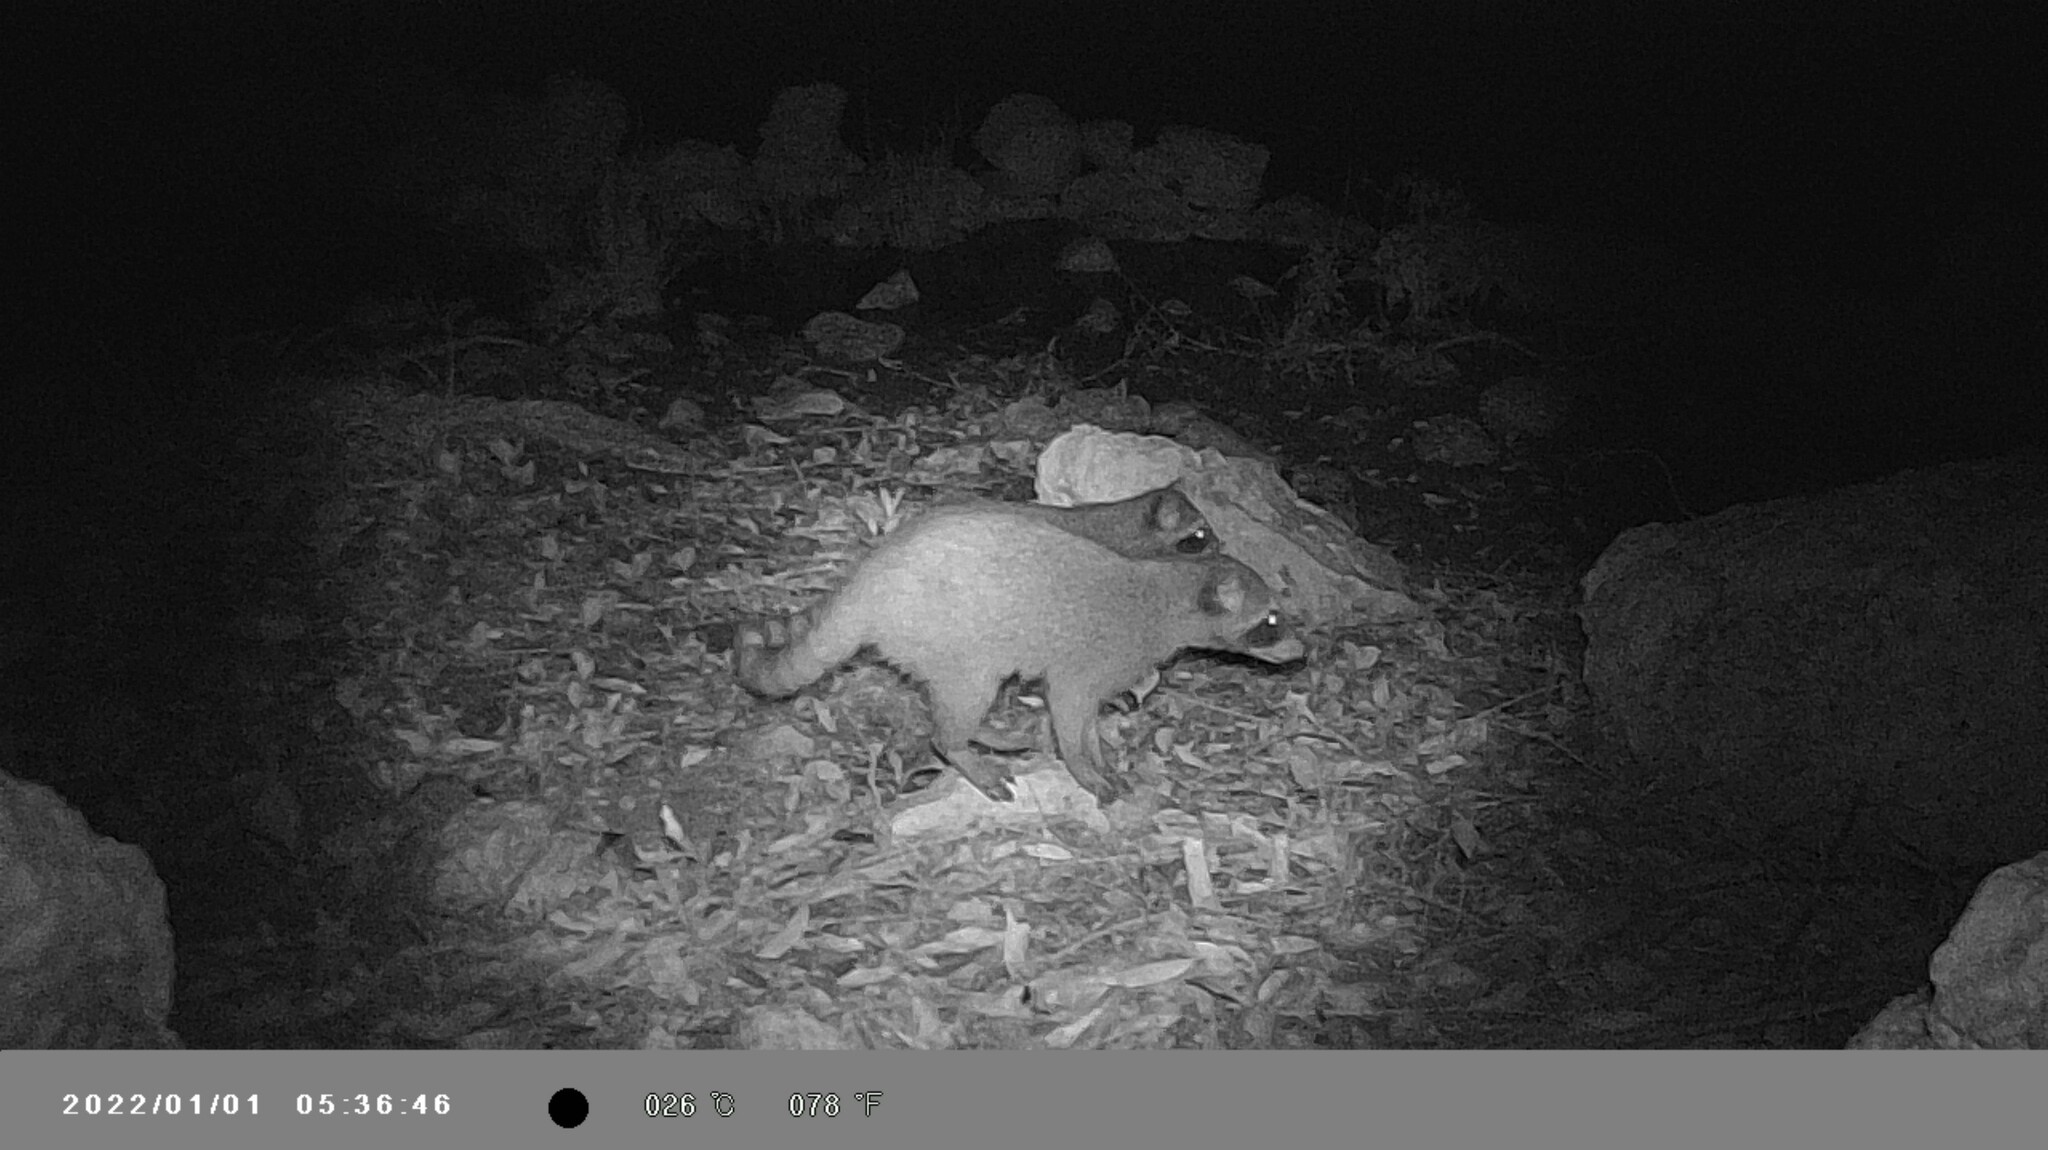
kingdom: Animalia
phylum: Chordata
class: Mammalia
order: Carnivora
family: Procyonidae
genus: Procyon
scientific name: Procyon lotor
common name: Raccoon
